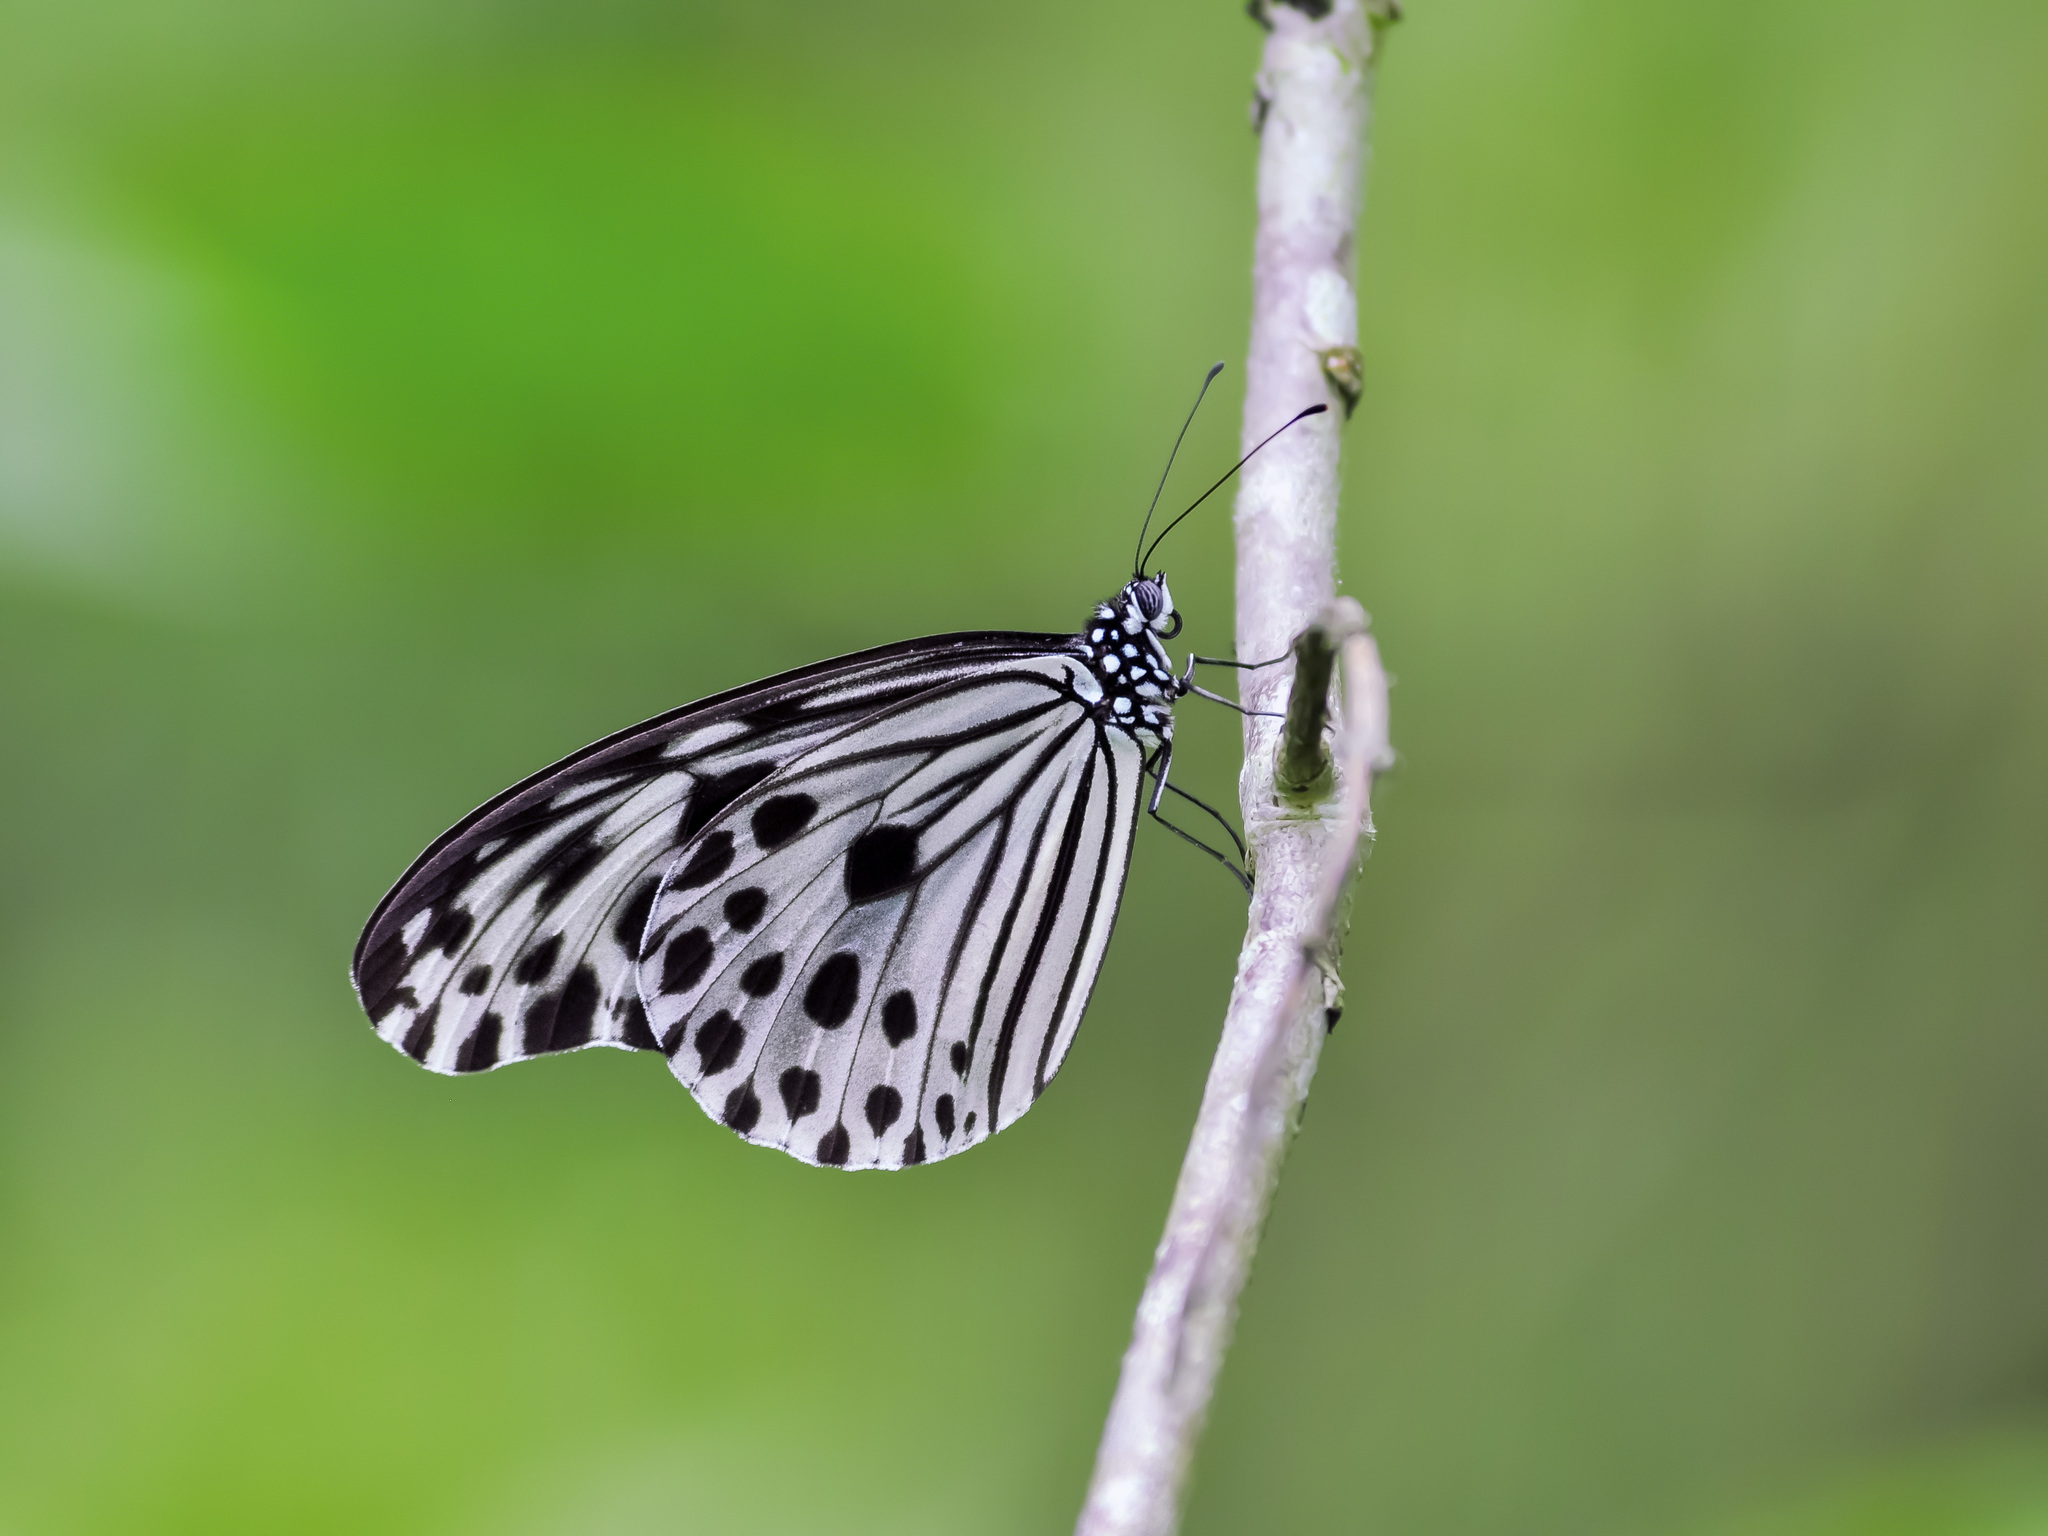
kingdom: Animalia
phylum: Arthropoda
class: Insecta
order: Lepidoptera
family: Nymphalidae
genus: Ideopsis
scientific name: Ideopsis gaura
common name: Smaller wood nymph
